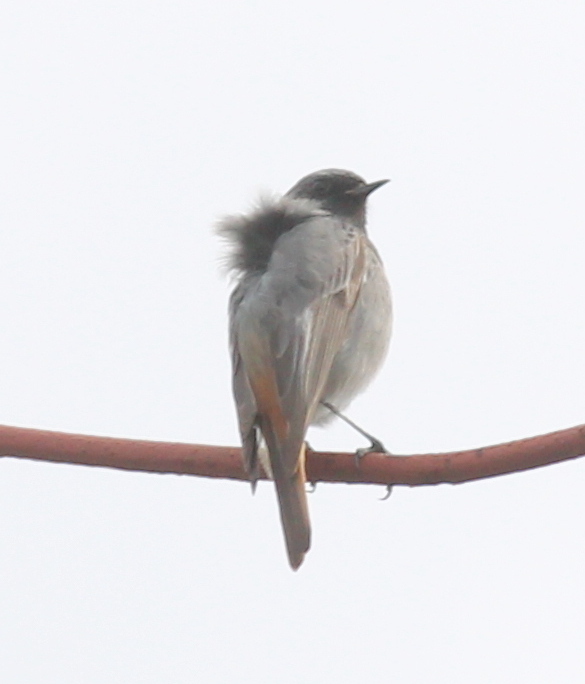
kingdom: Animalia
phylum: Chordata
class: Aves
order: Passeriformes
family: Muscicapidae
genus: Phoenicurus
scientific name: Phoenicurus ochruros
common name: Black redstart
